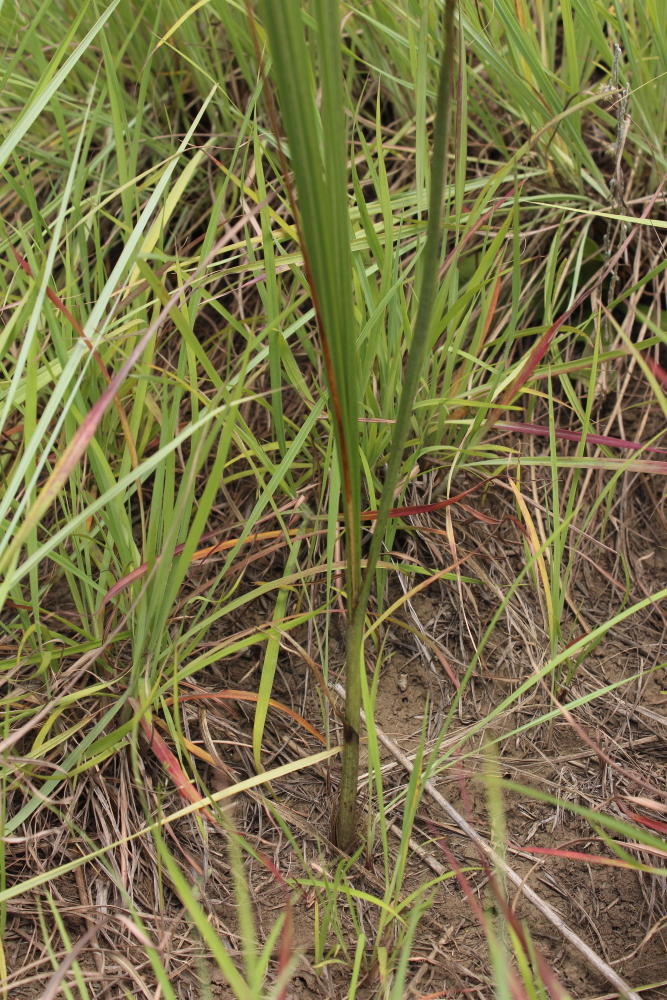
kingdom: Plantae
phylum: Tracheophyta
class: Liliopsida
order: Asparagales
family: Hypoxidaceae
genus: Hypoxis
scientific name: Hypoxis rigidula
